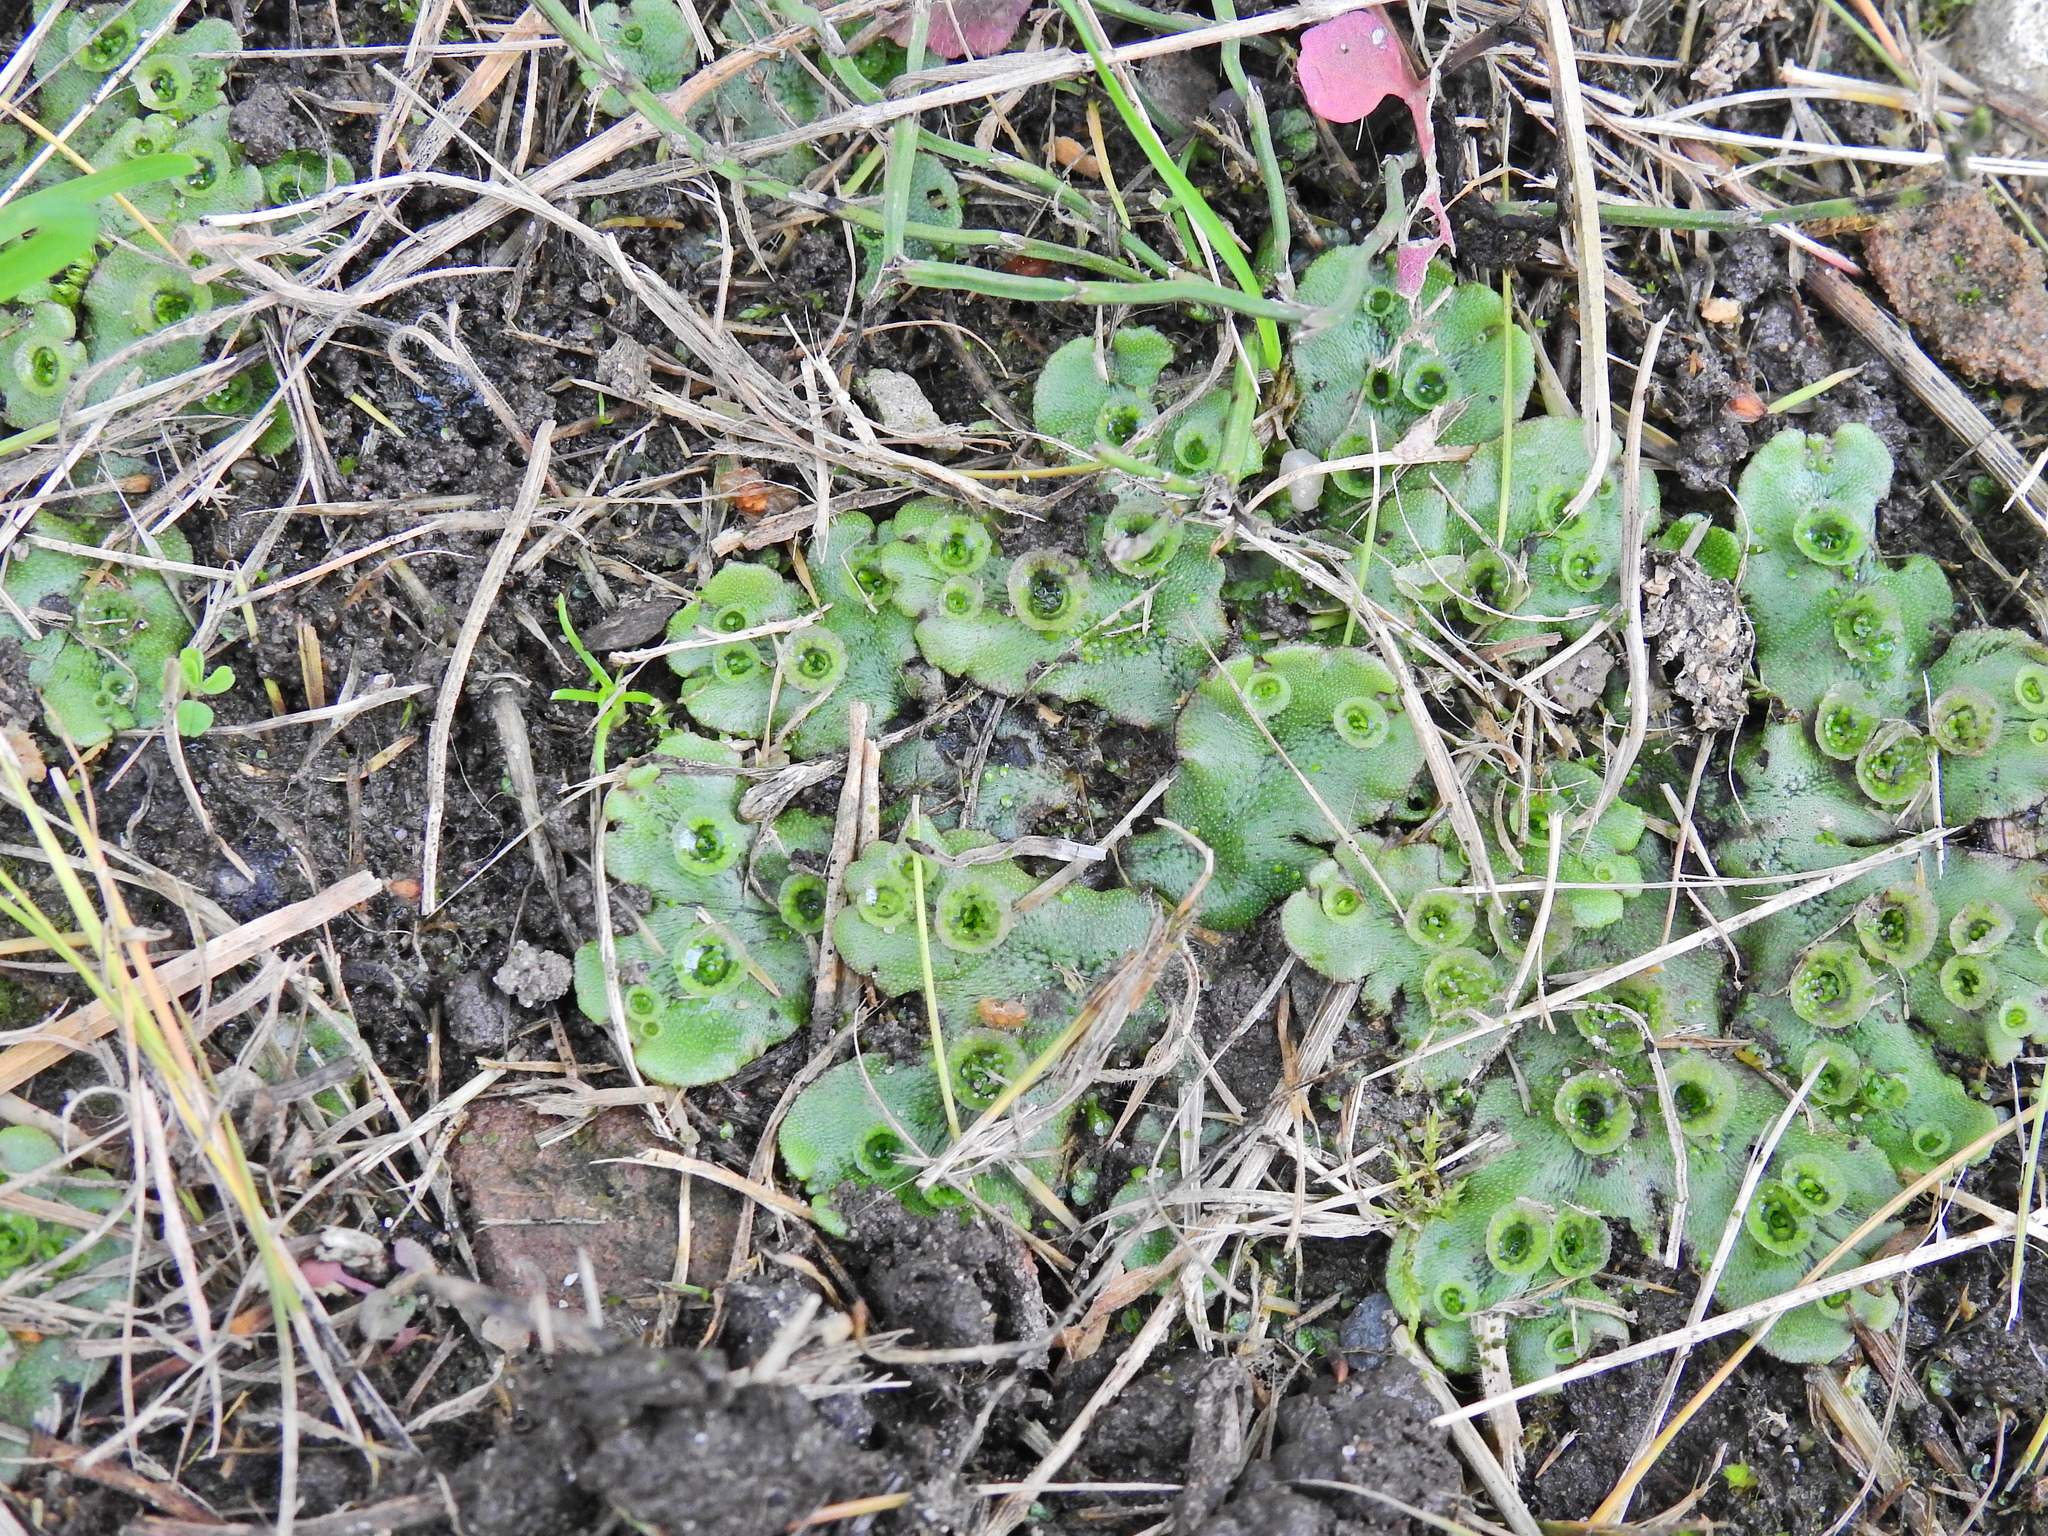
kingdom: Plantae
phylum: Marchantiophyta
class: Marchantiopsida
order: Marchantiales
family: Marchantiaceae
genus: Marchantia
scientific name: Marchantia polymorpha
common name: Common liverwort
